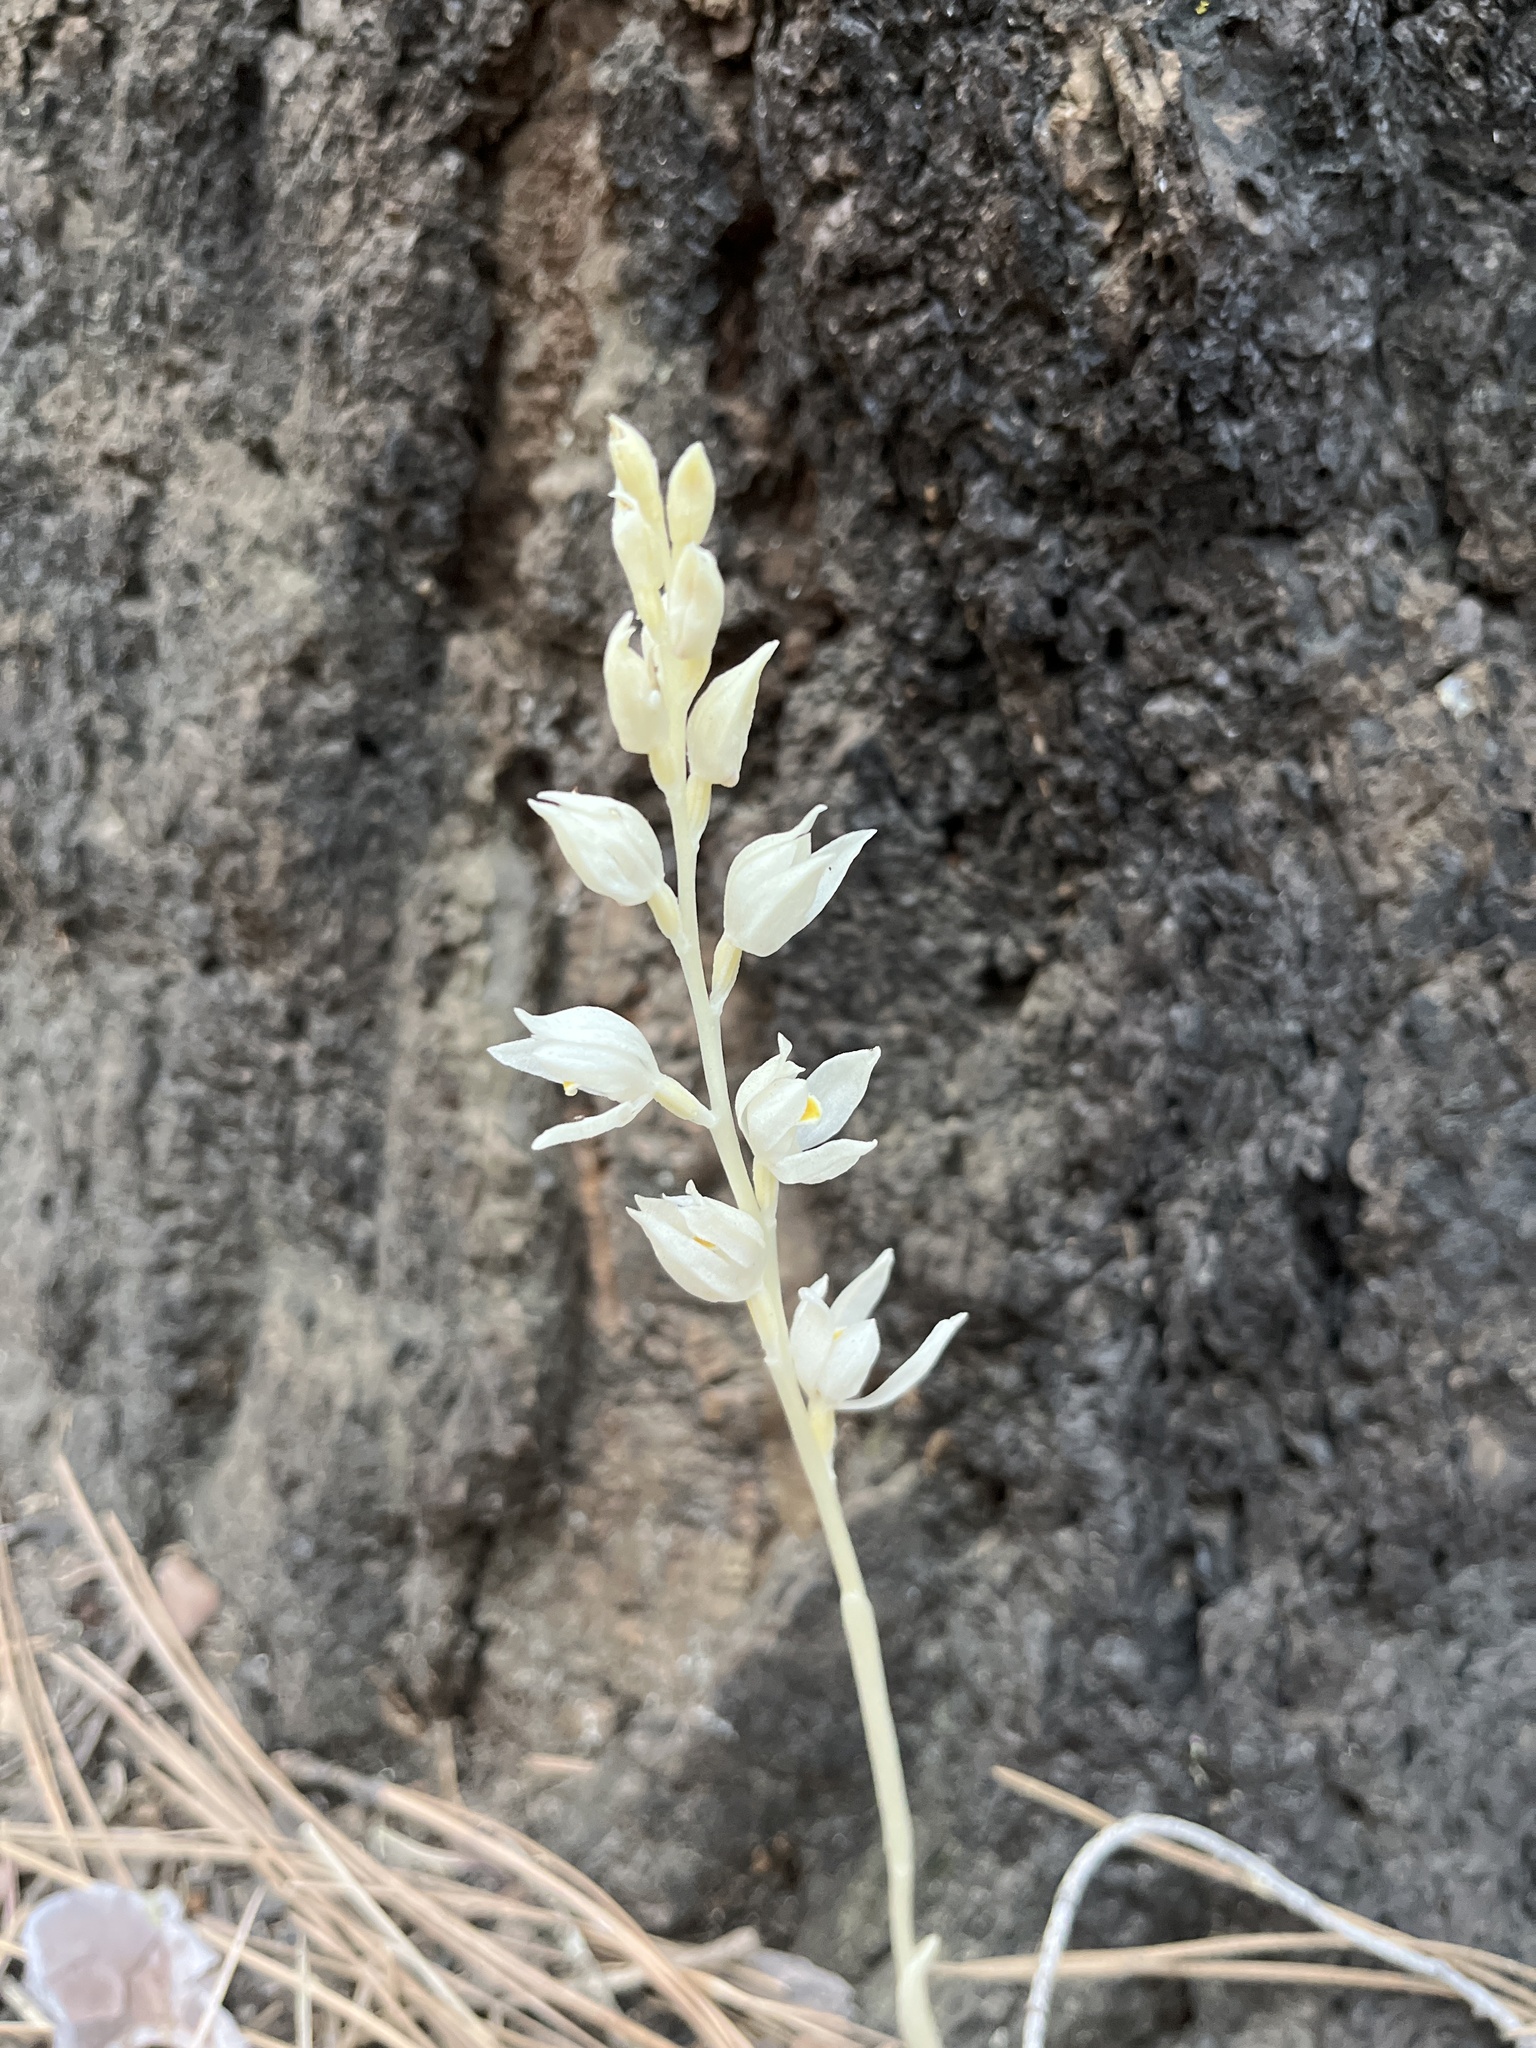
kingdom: Plantae
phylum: Tracheophyta
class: Liliopsida
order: Asparagales
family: Orchidaceae
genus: Cephalanthera
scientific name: Cephalanthera austiniae
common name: Phantom orchid
